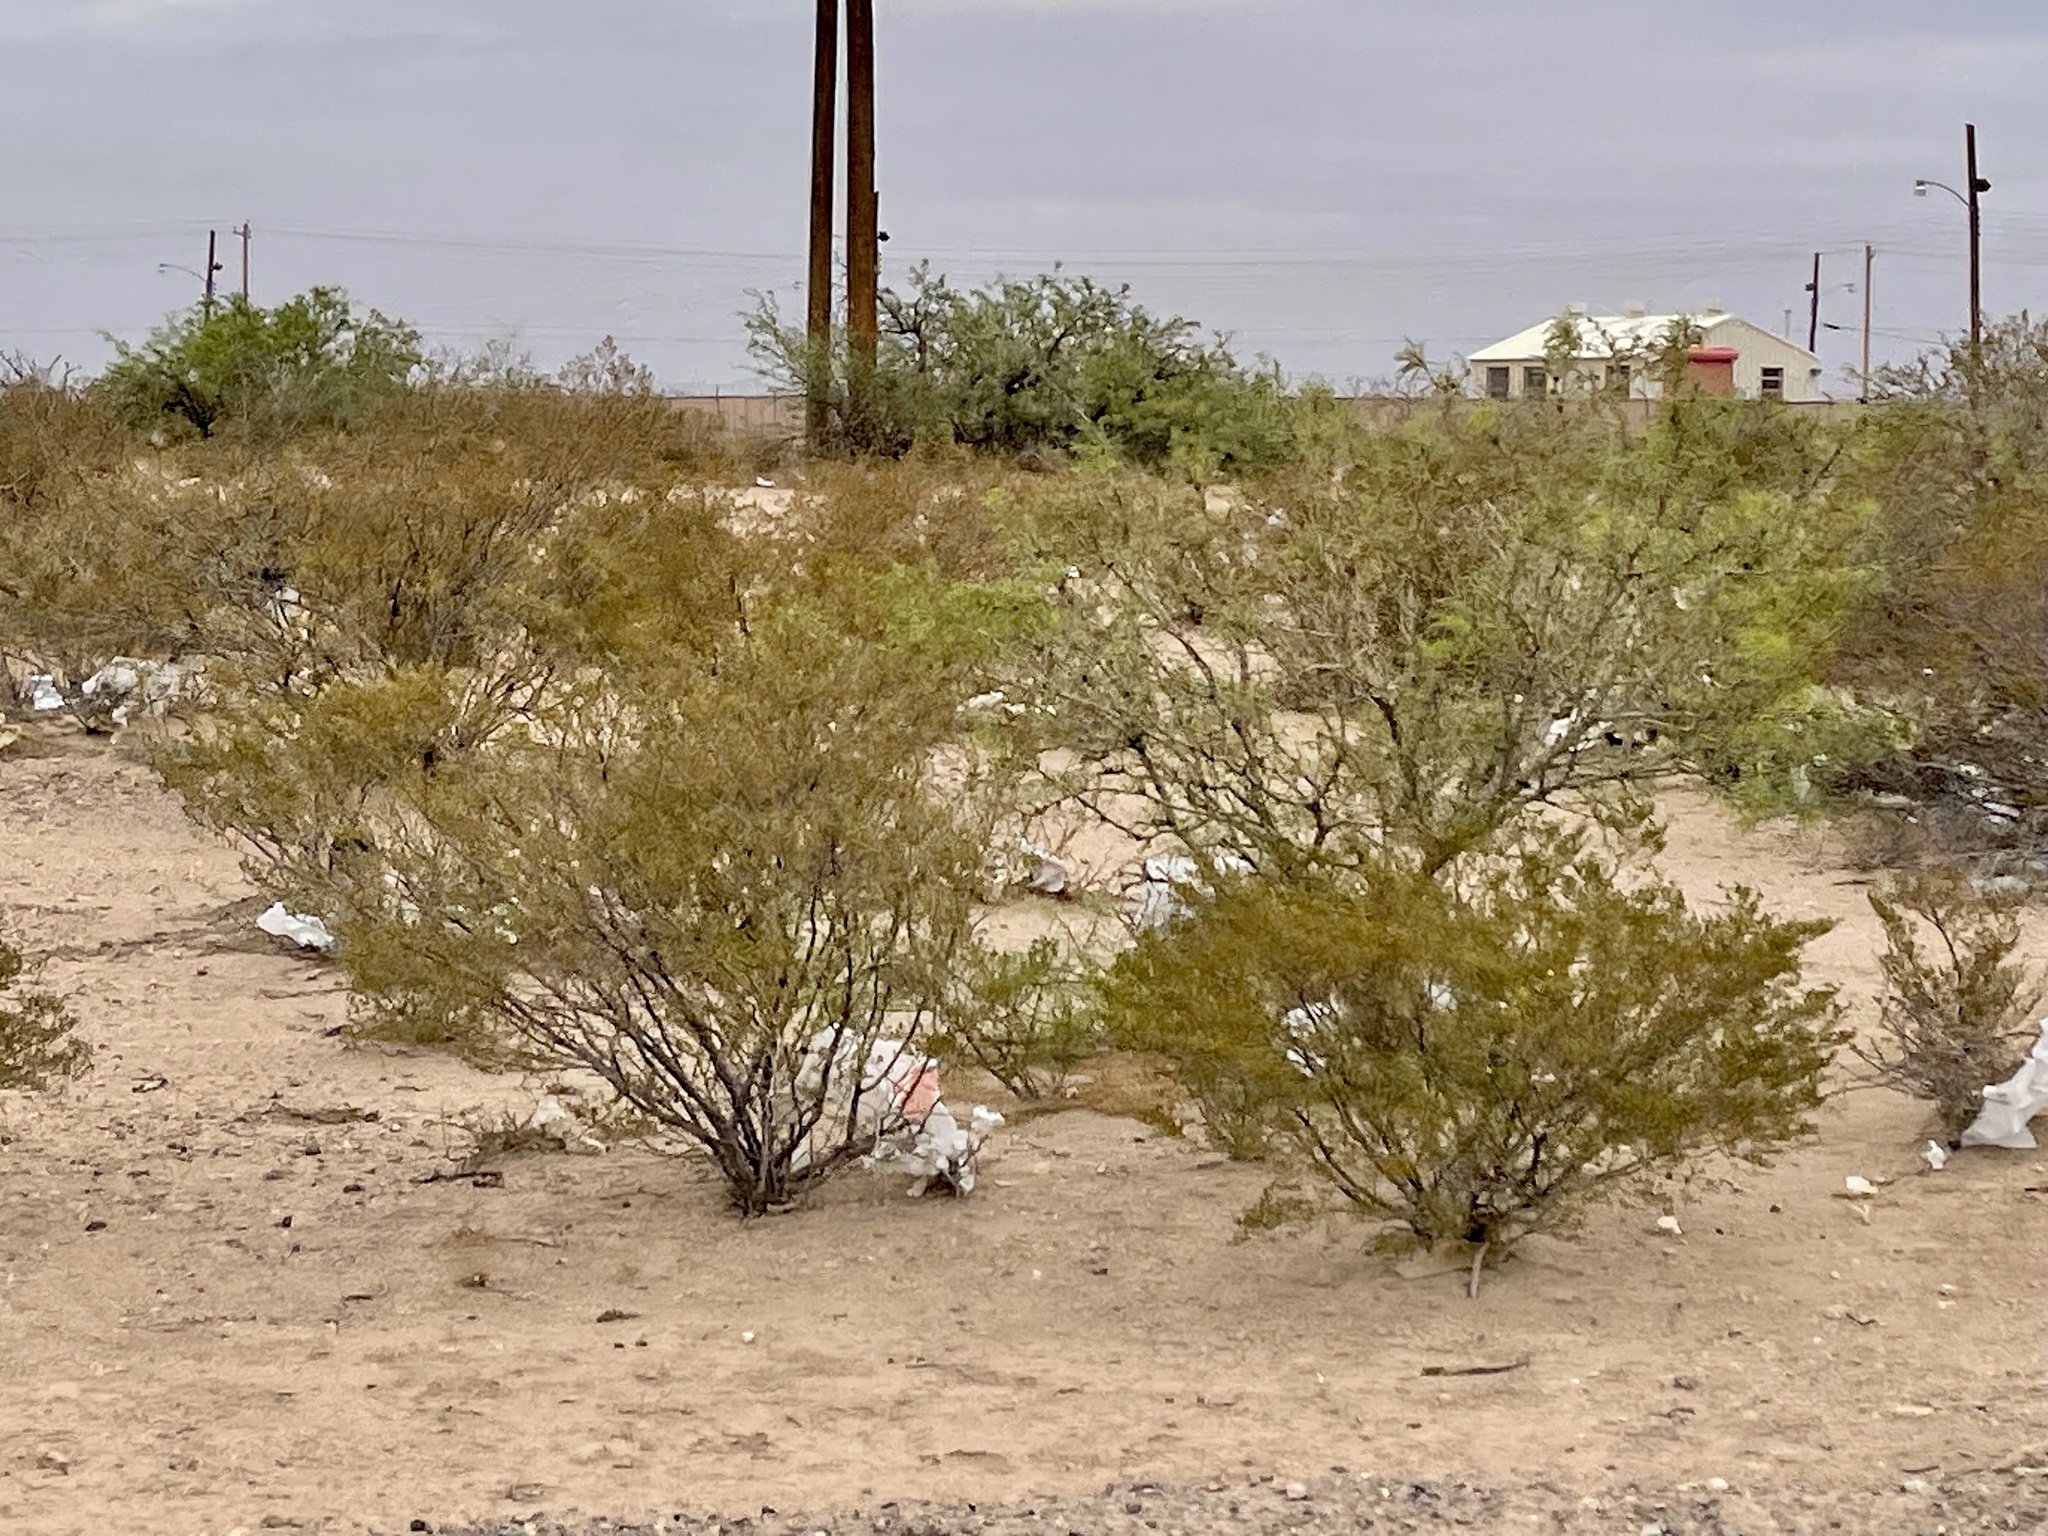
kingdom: Plantae
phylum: Tracheophyta
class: Magnoliopsida
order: Zygophyllales
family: Zygophyllaceae
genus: Larrea
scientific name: Larrea tridentata
